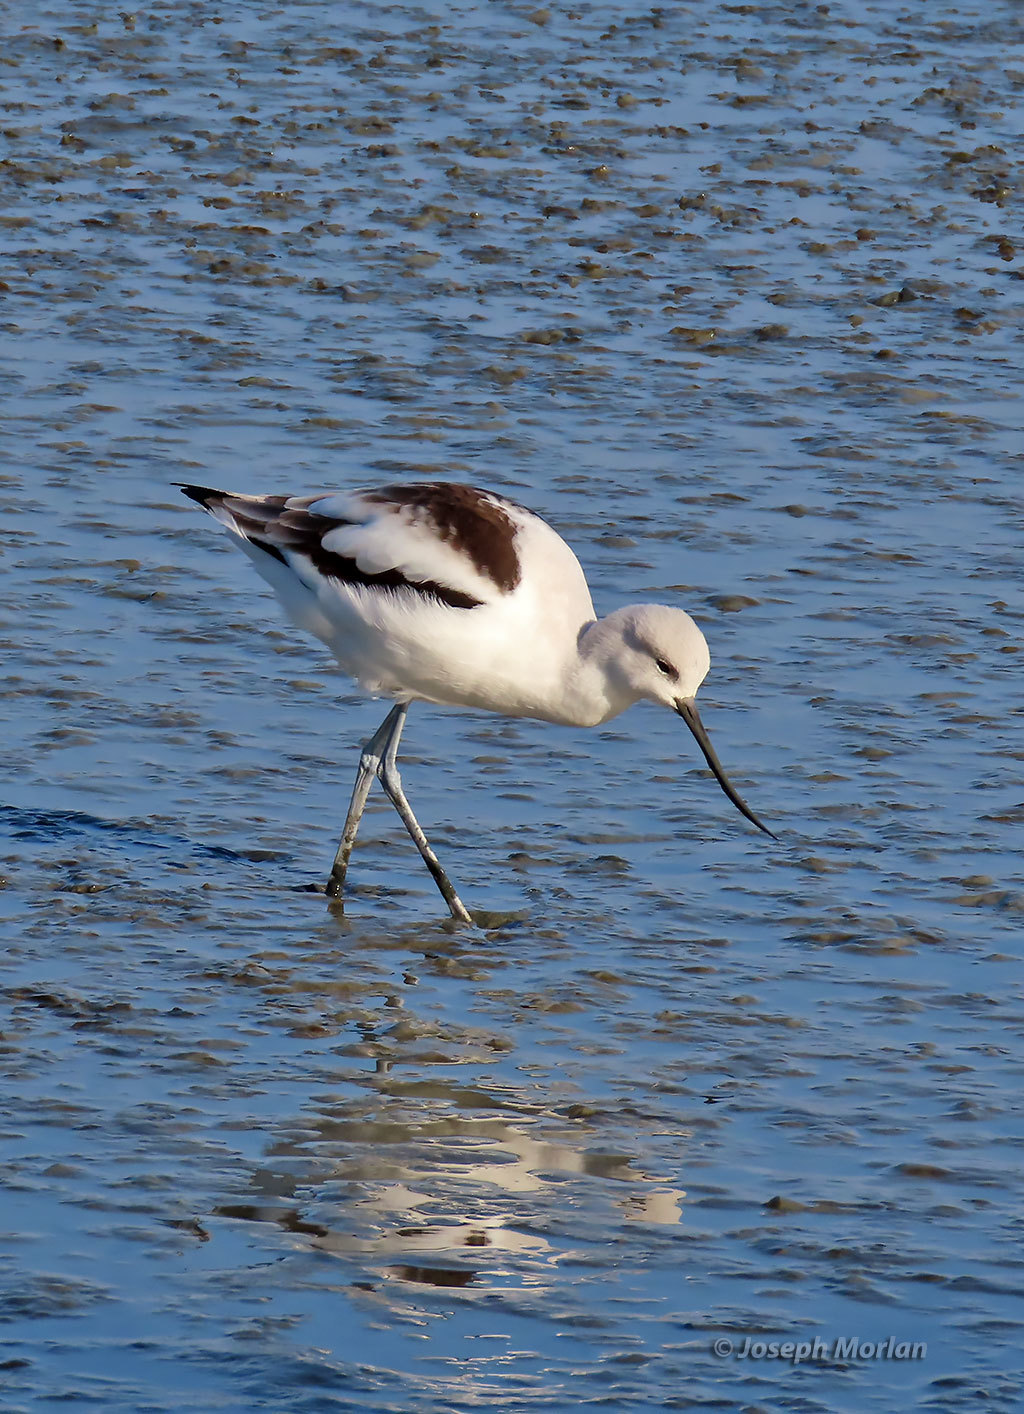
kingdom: Animalia
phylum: Chordata
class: Aves
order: Charadriiformes
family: Recurvirostridae
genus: Recurvirostra
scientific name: Recurvirostra americana
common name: American avocet
